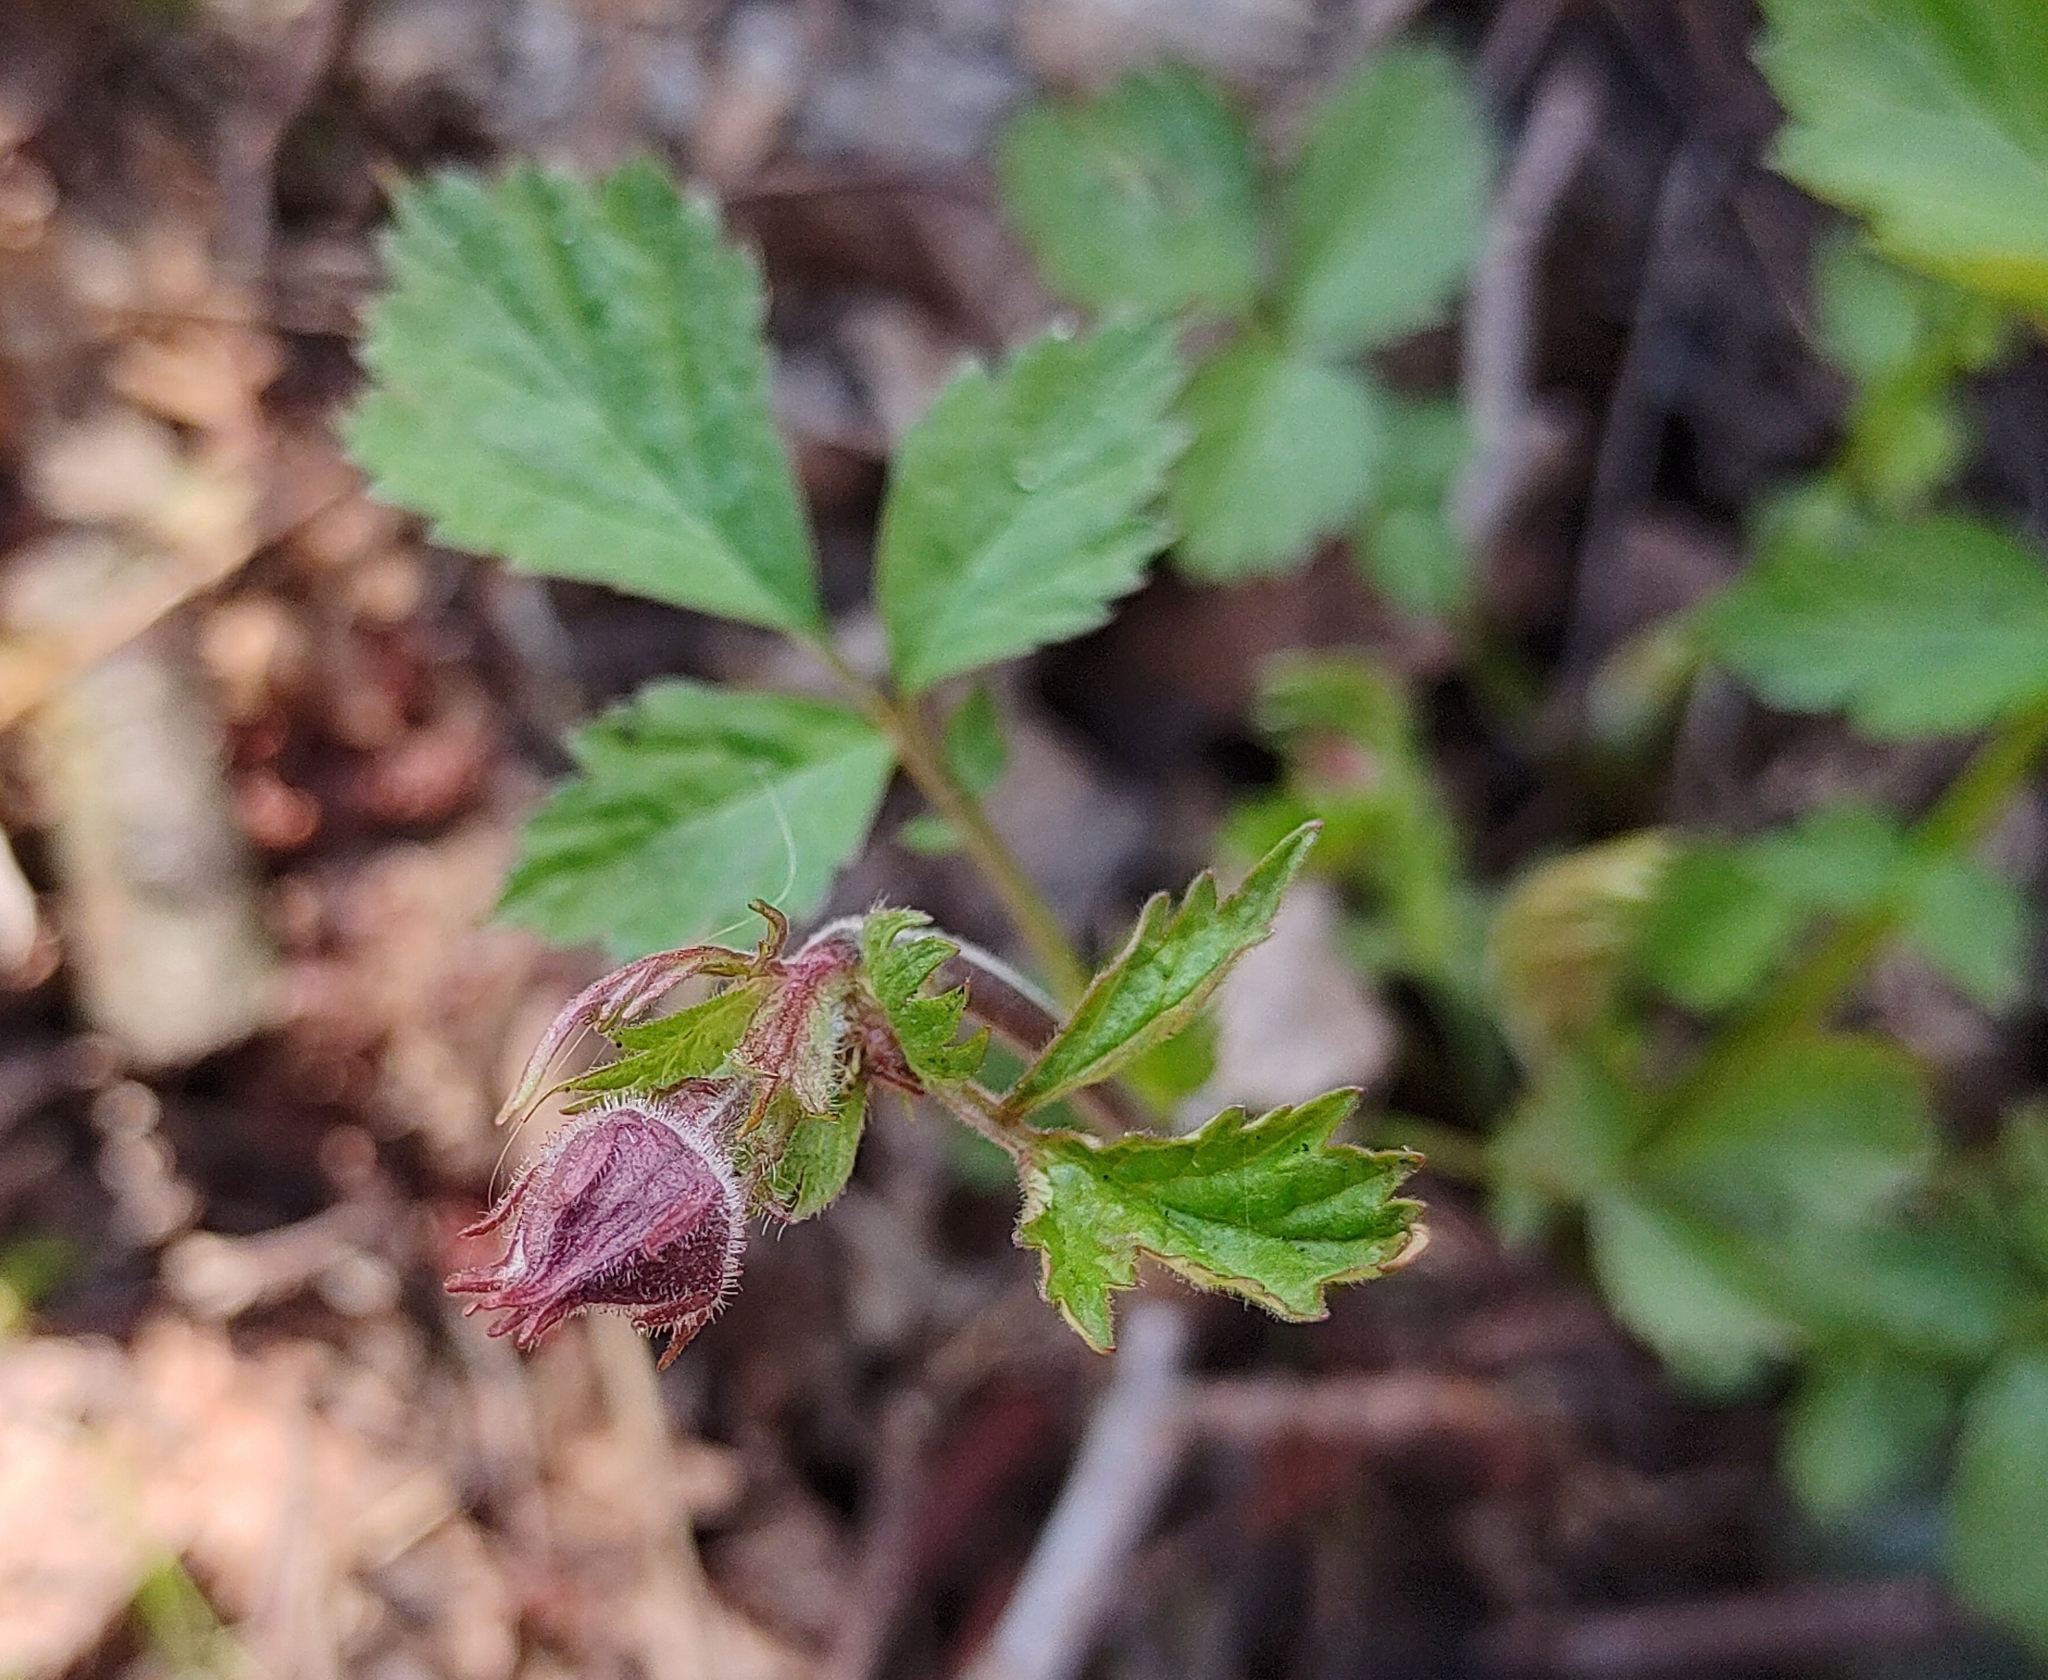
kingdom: Plantae
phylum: Tracheophyta
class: Magnoliopsida
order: Rosales
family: Rosaceae
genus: Geum
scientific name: Geum rivale
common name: Water avens
